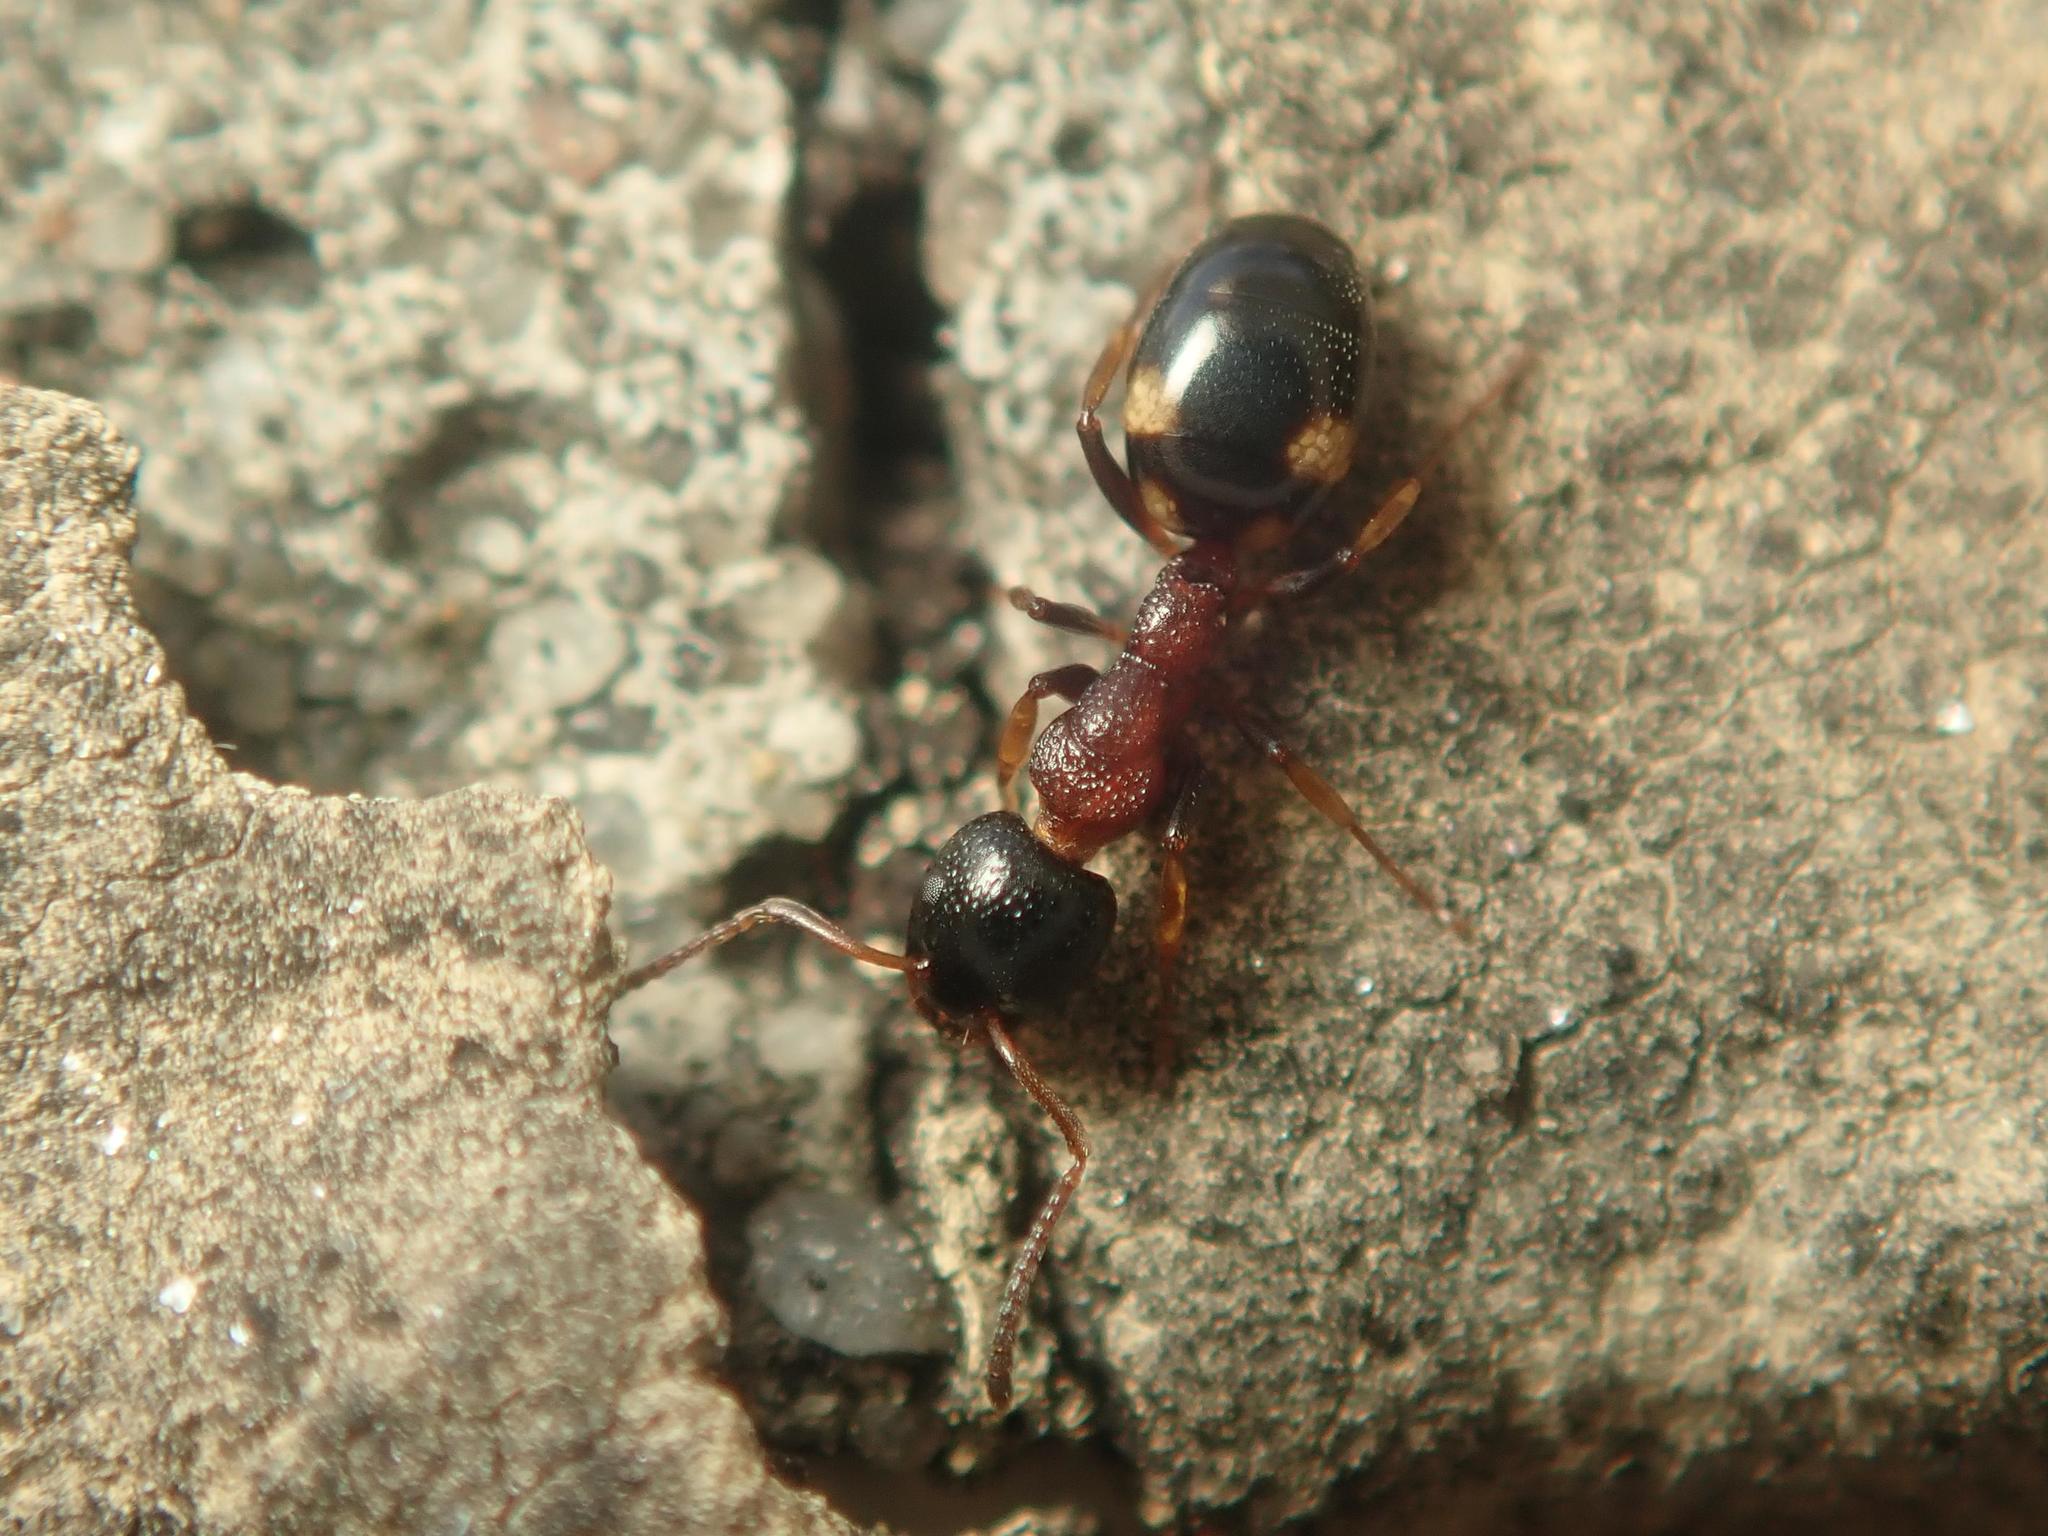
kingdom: Animalia
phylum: Arthropoda
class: Insecta
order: Hymenoptera
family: Formicidae
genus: Dolichoderus
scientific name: Dolichoderus quadripunctatus
